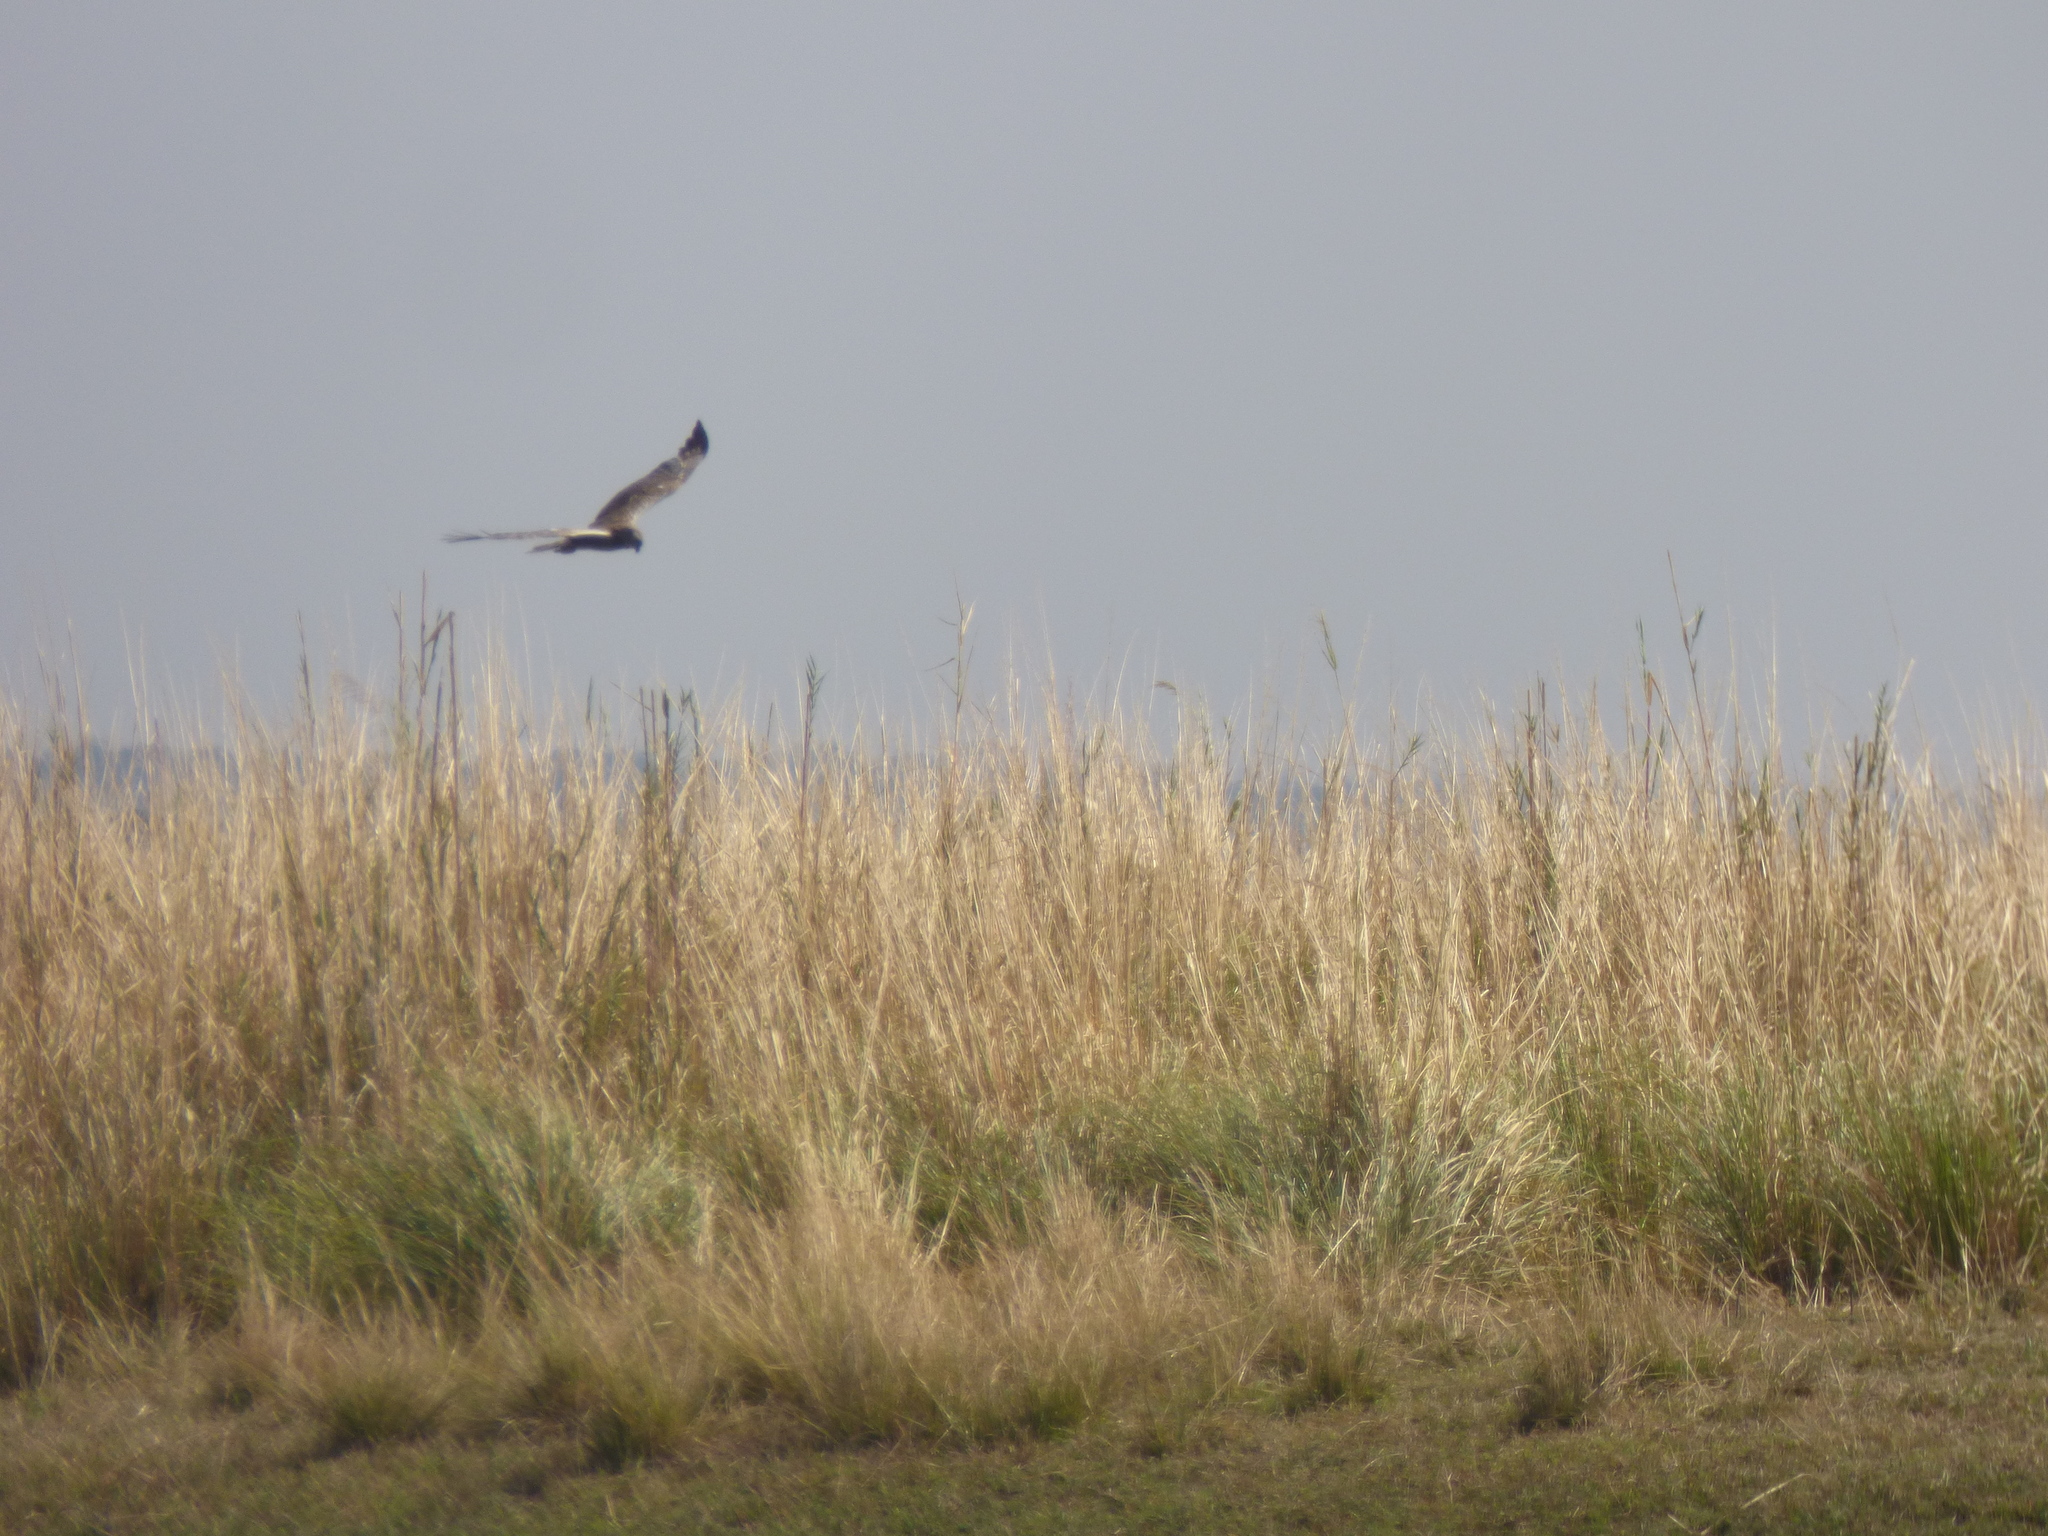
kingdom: Animalia
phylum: Chordata
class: Aves
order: Accipitriformes
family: Accipitridae
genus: Circus
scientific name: Circus ranivorus
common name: African marsh-harrier
